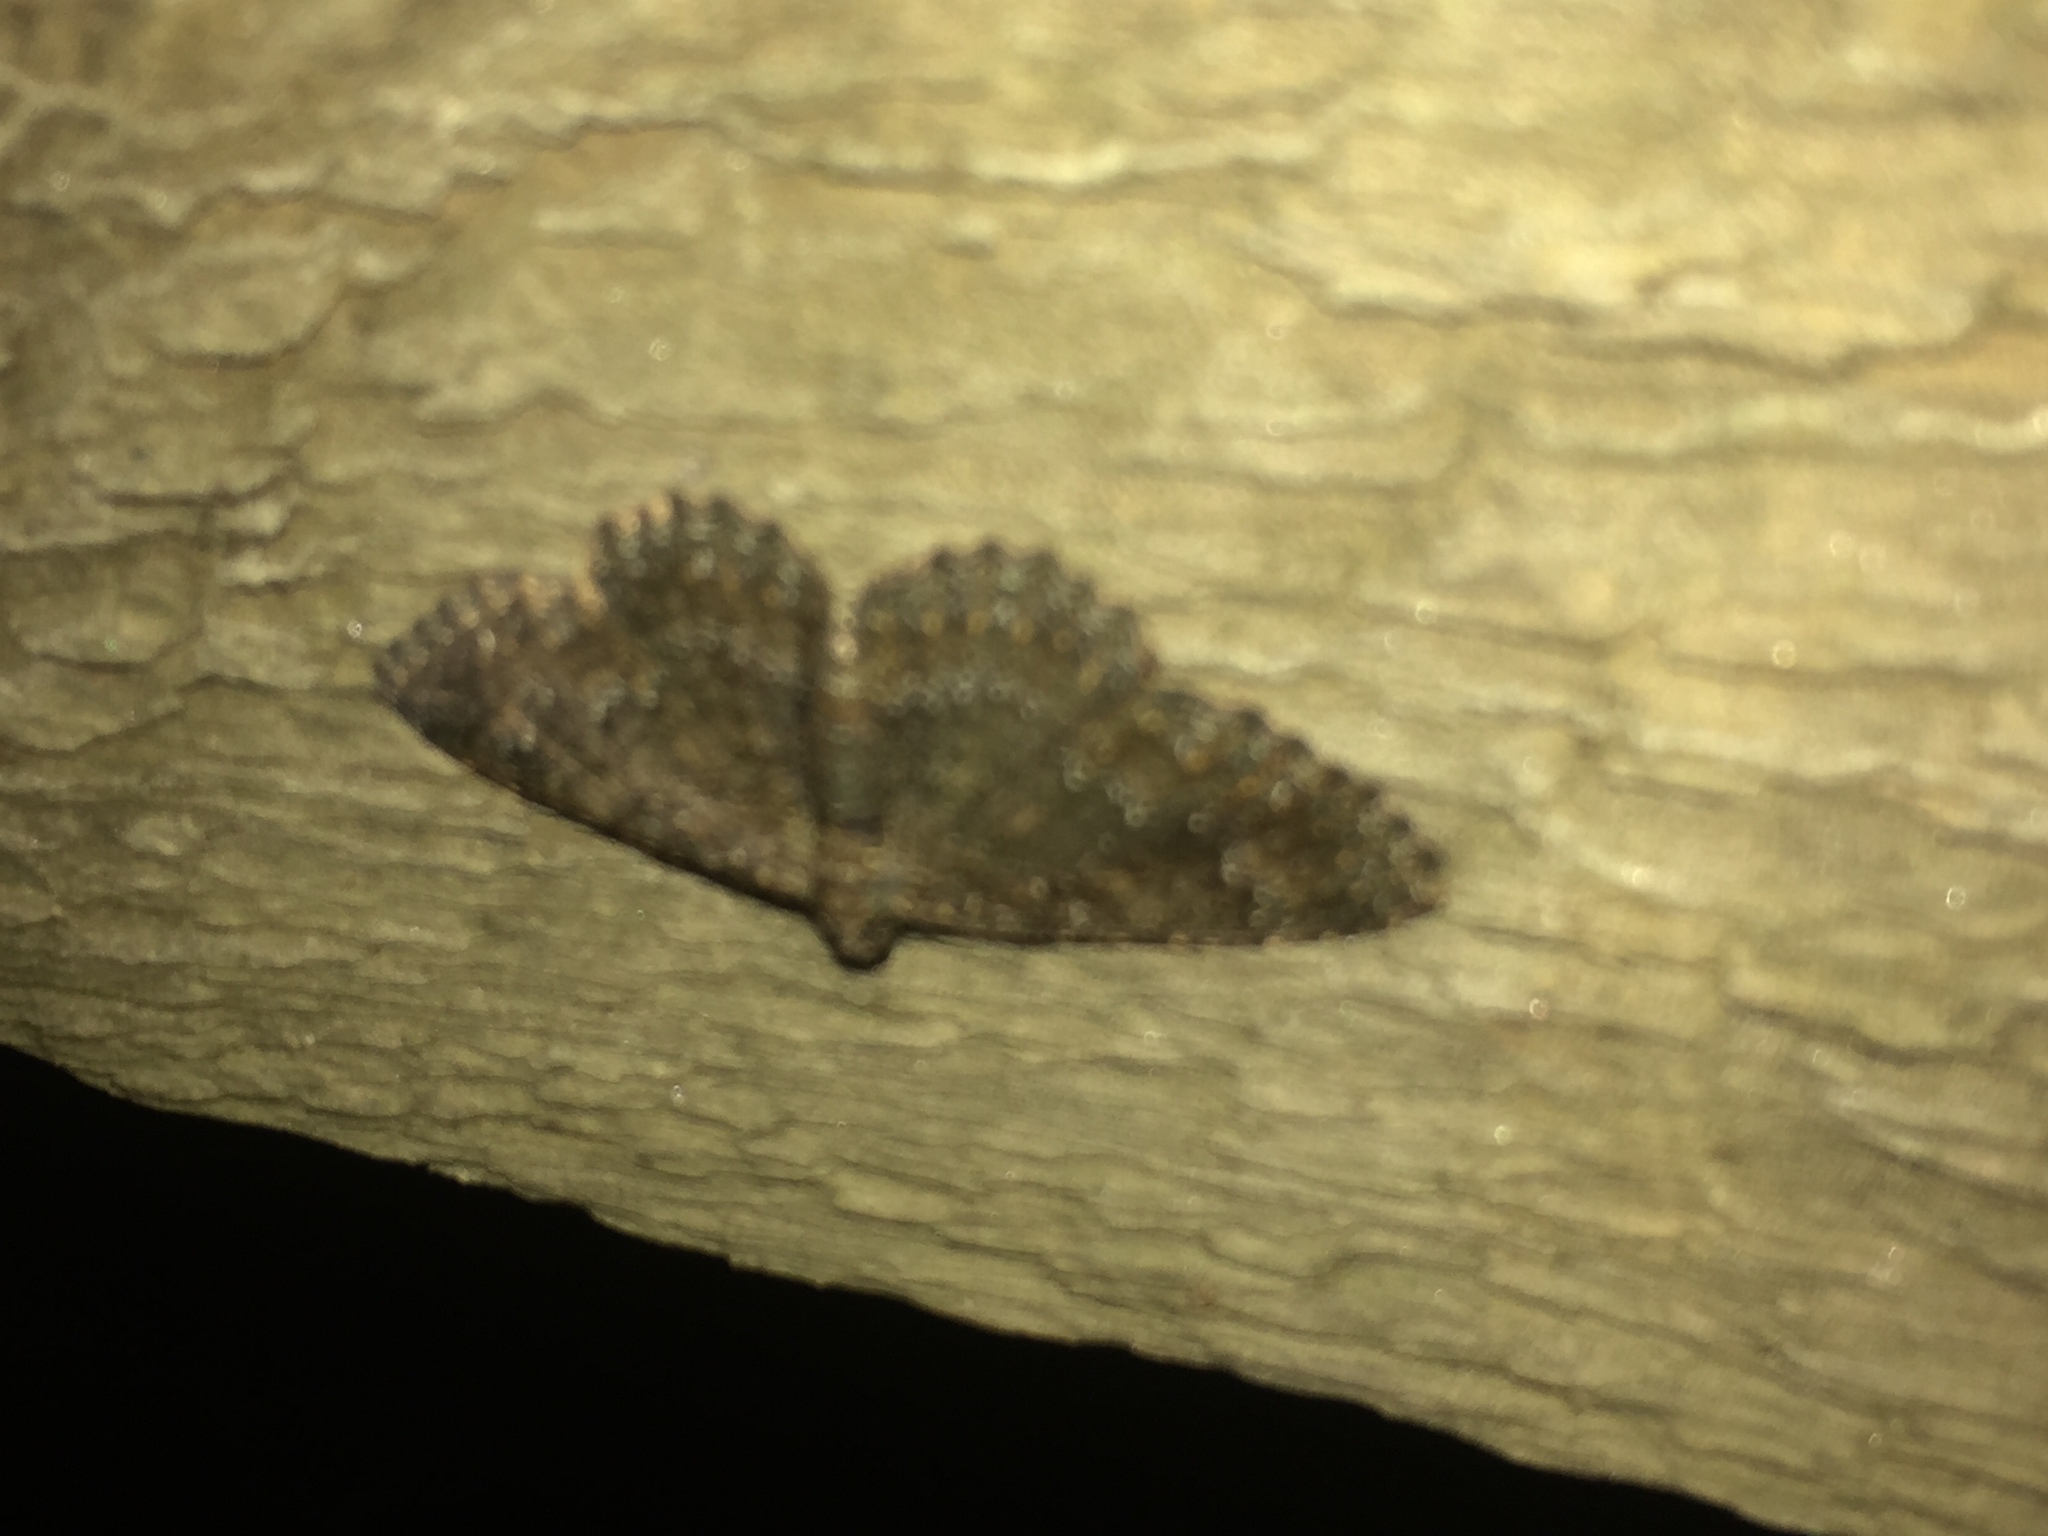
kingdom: Animalia
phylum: Arthropoda
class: Insecta
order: Lepidoptera
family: Geometridae
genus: Disclisioprocta
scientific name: Disclisioprocta stellata
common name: Somber carpet
